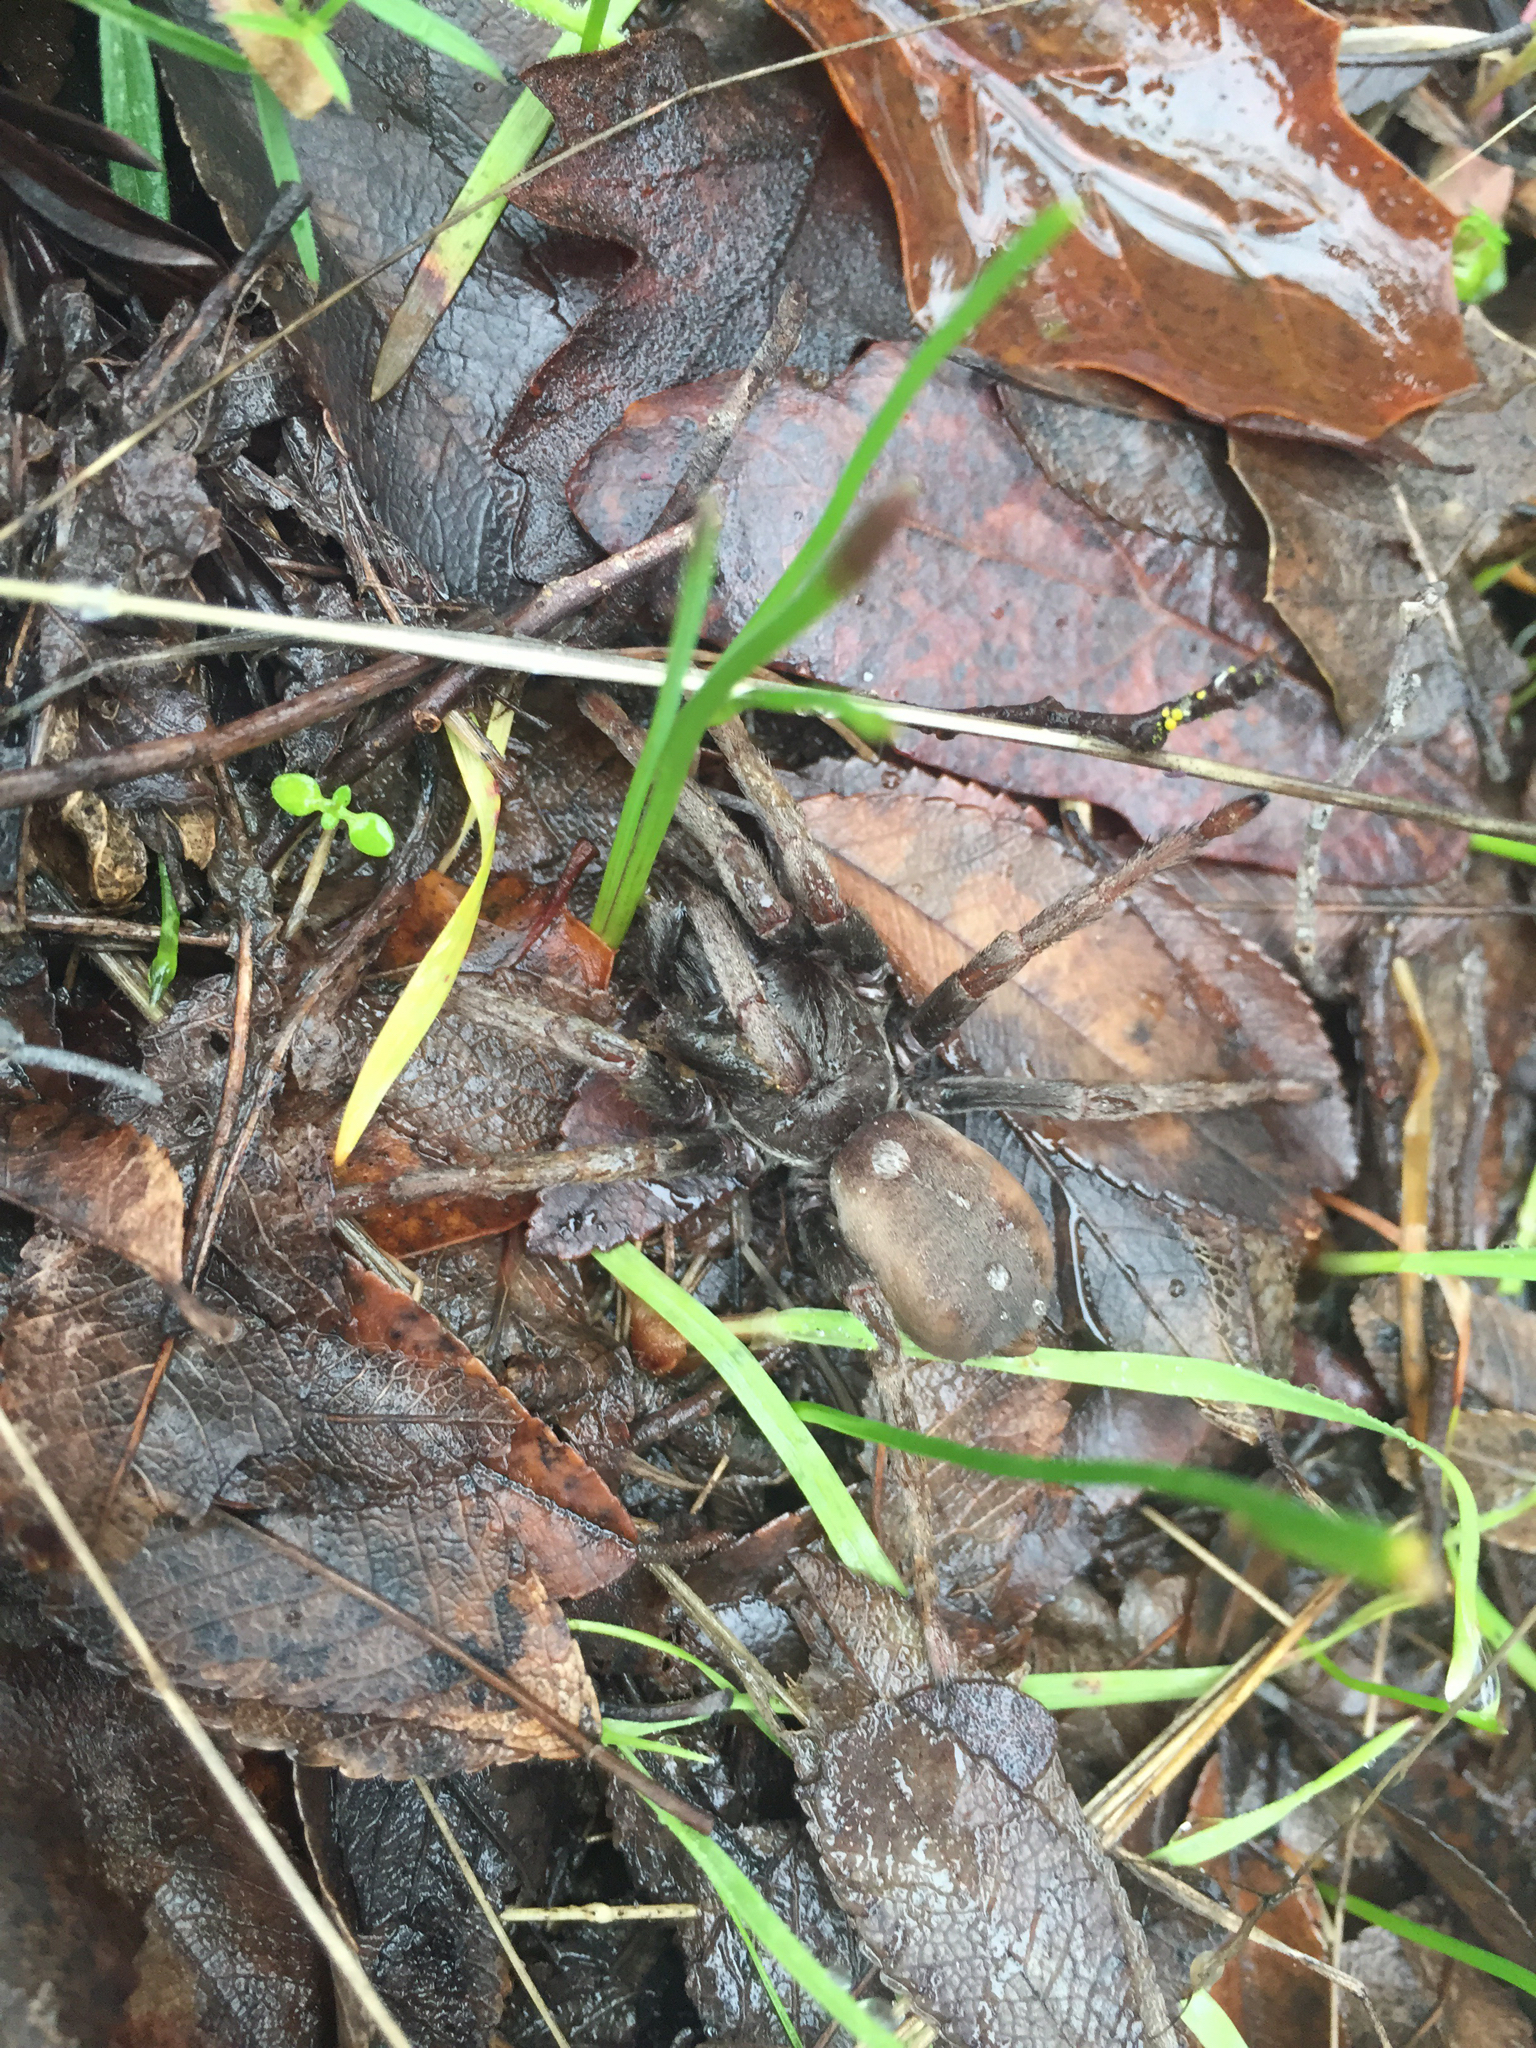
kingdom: Animalia
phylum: Arthropoda
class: Arachnida
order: Araneae
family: Nemesiidae
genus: Calisoga
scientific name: Calisoga longitarsis
